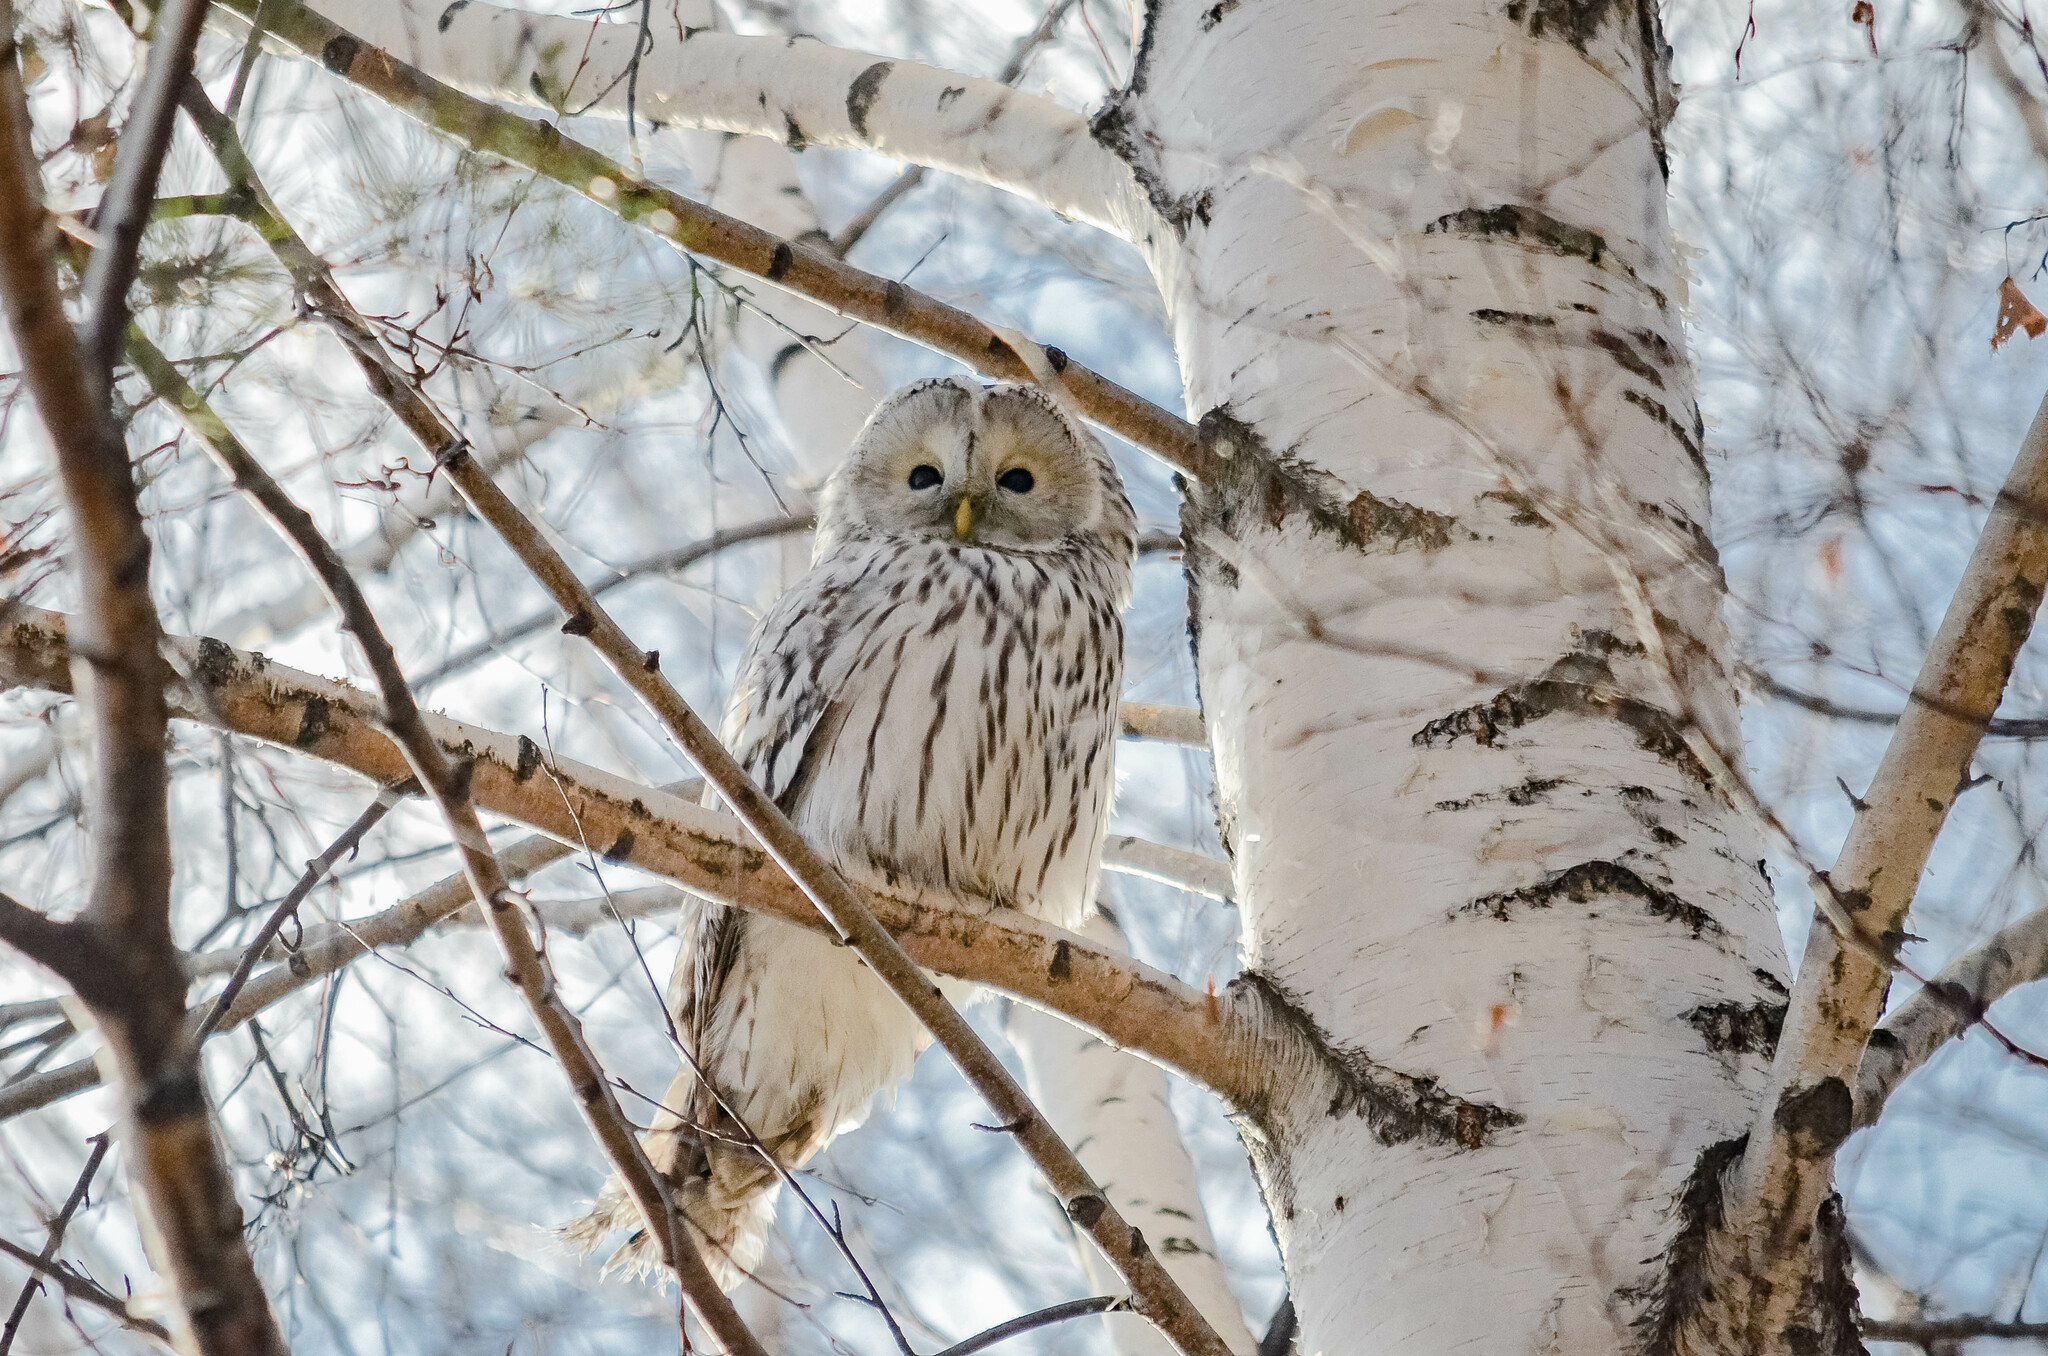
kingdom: Animalia
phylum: Chordata
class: Aves
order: Strigiformes
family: Strigidae
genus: Strix
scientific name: Strix uralensis
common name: Ural owl
